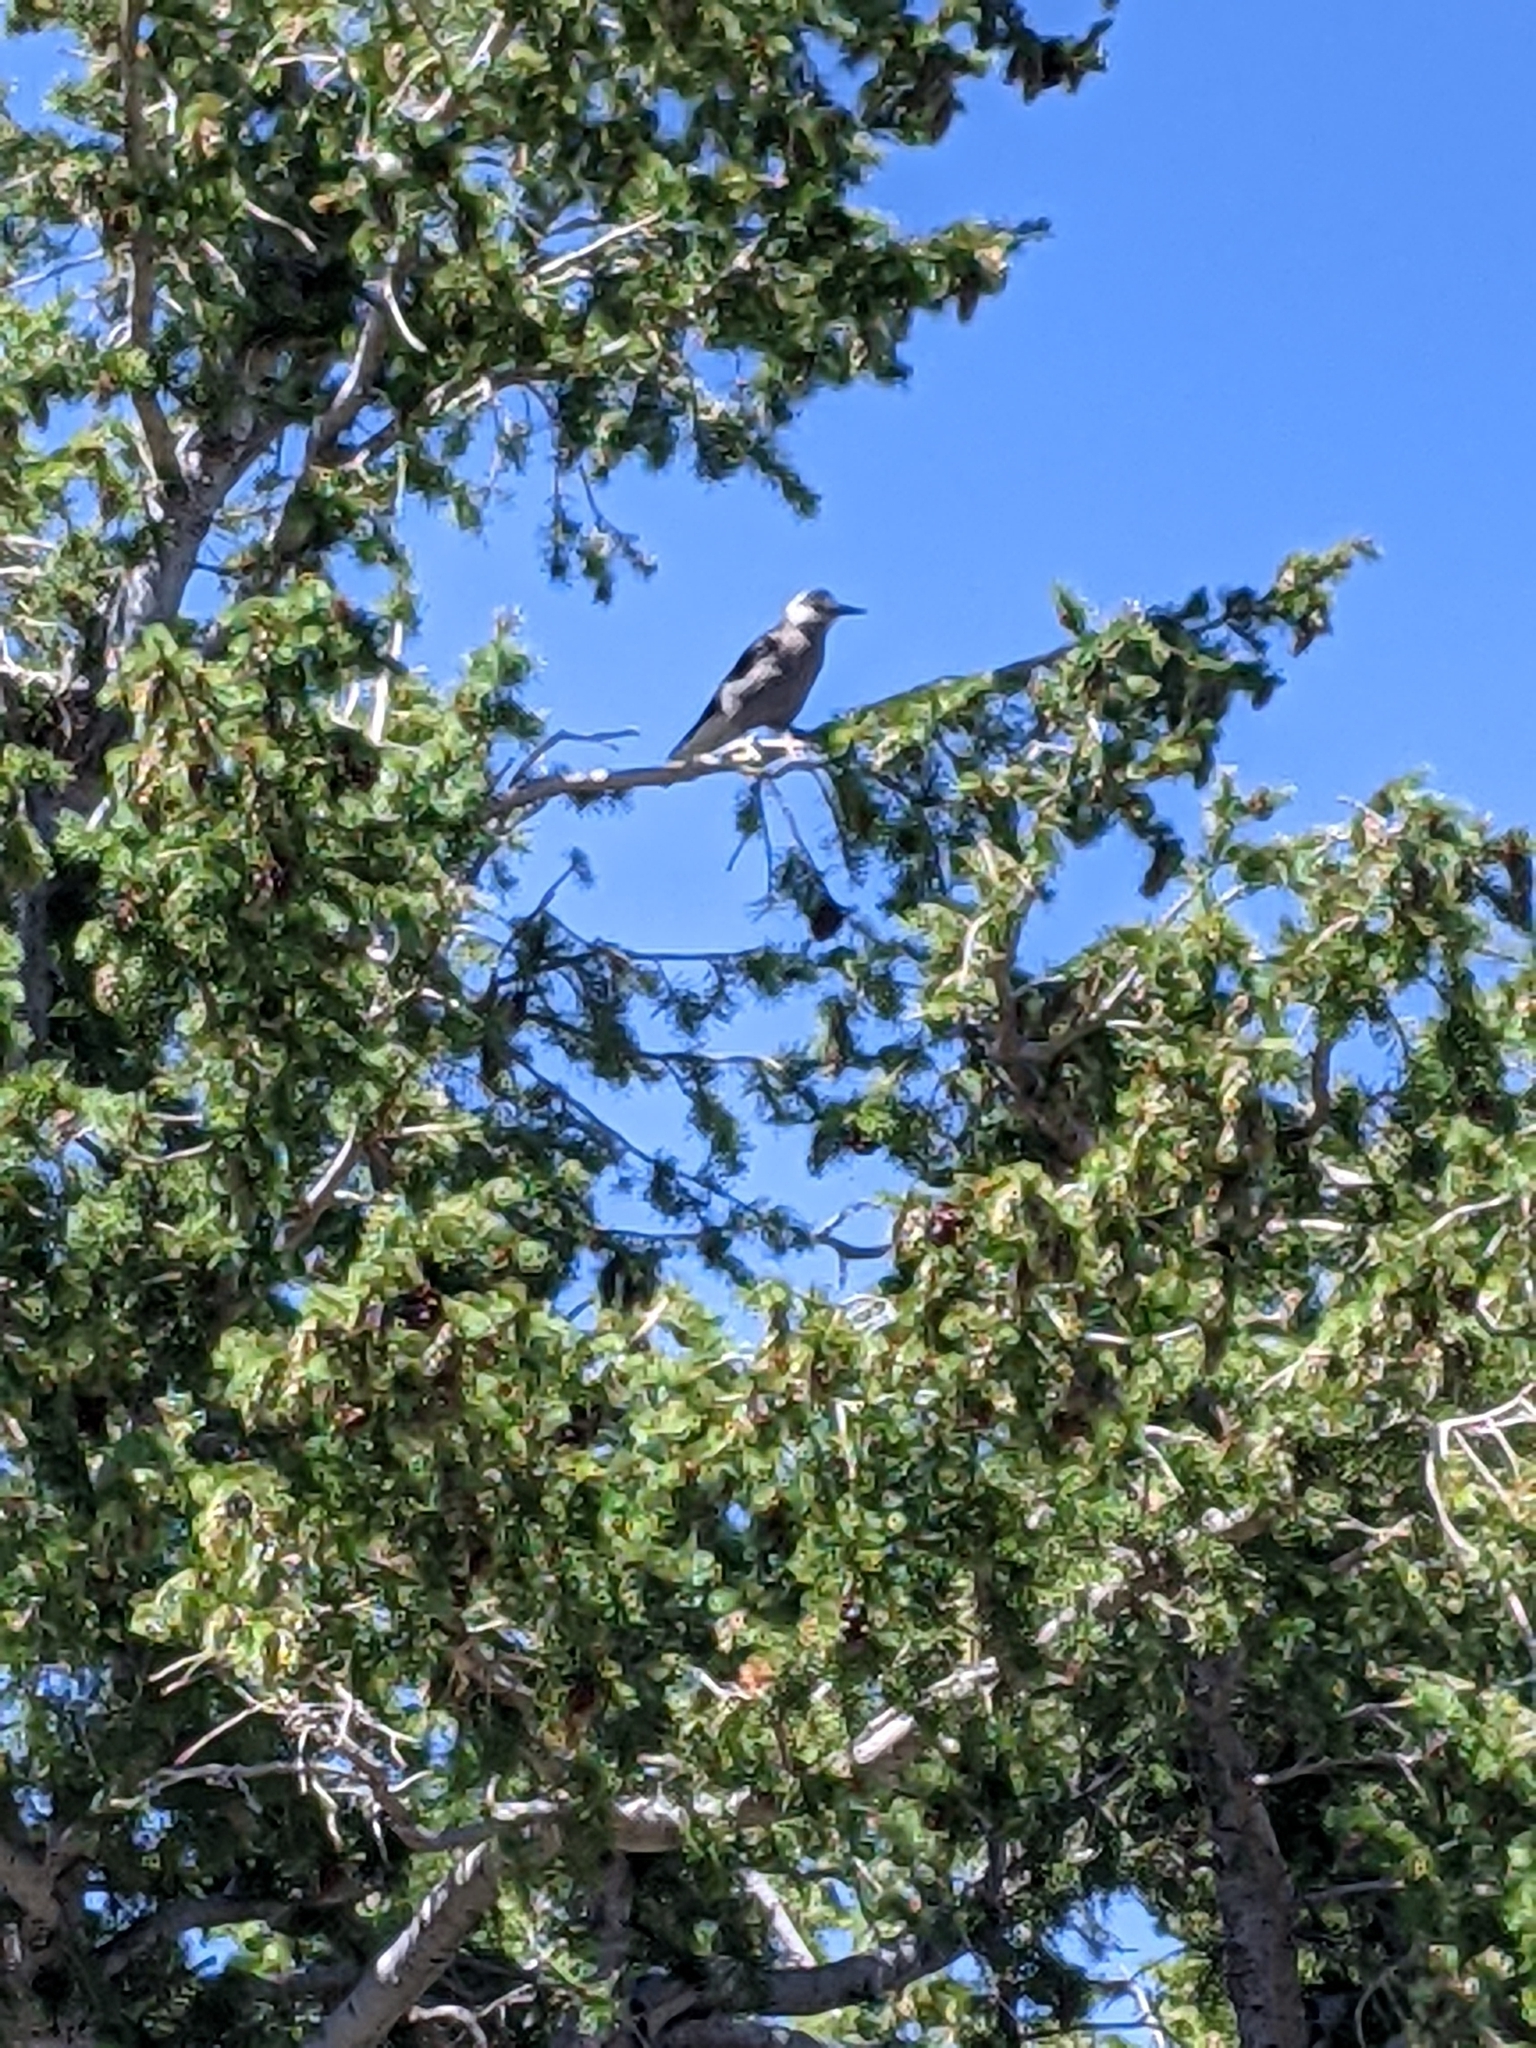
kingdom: Animalia
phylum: Chordata
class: Aves
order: Passeriformes
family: Corvidae
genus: Nucifraga
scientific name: Nucifraga columbiana
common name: Clark's nutcracker
